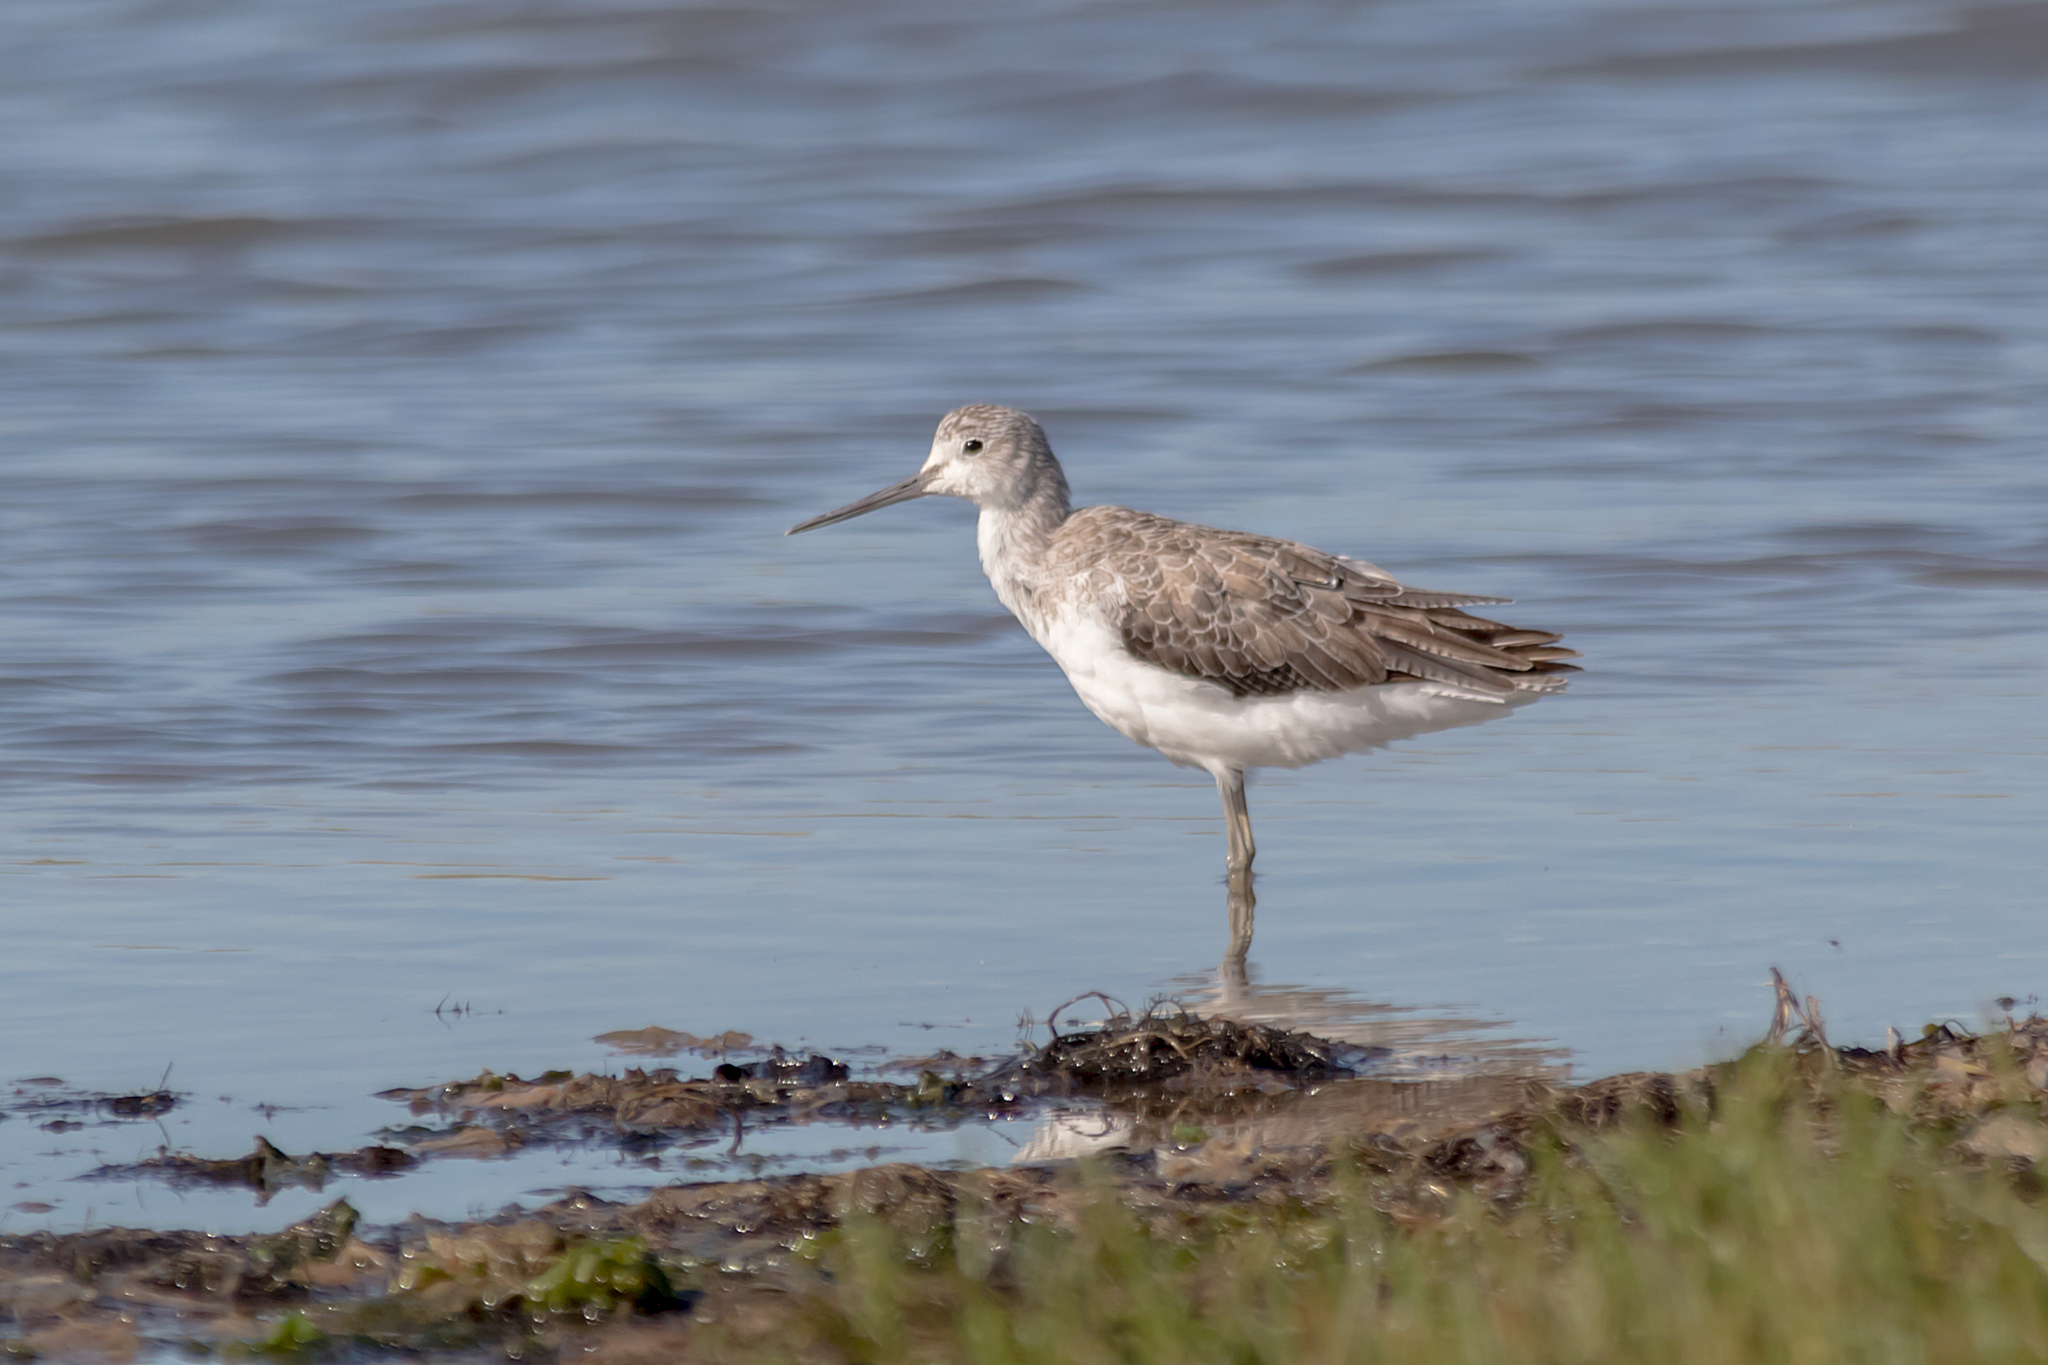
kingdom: Animalia
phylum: Chordata
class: Aves
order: Charadriiformes
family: Scolopacidae
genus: Tringa
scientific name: Tringa nebularia
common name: Common greenshank
